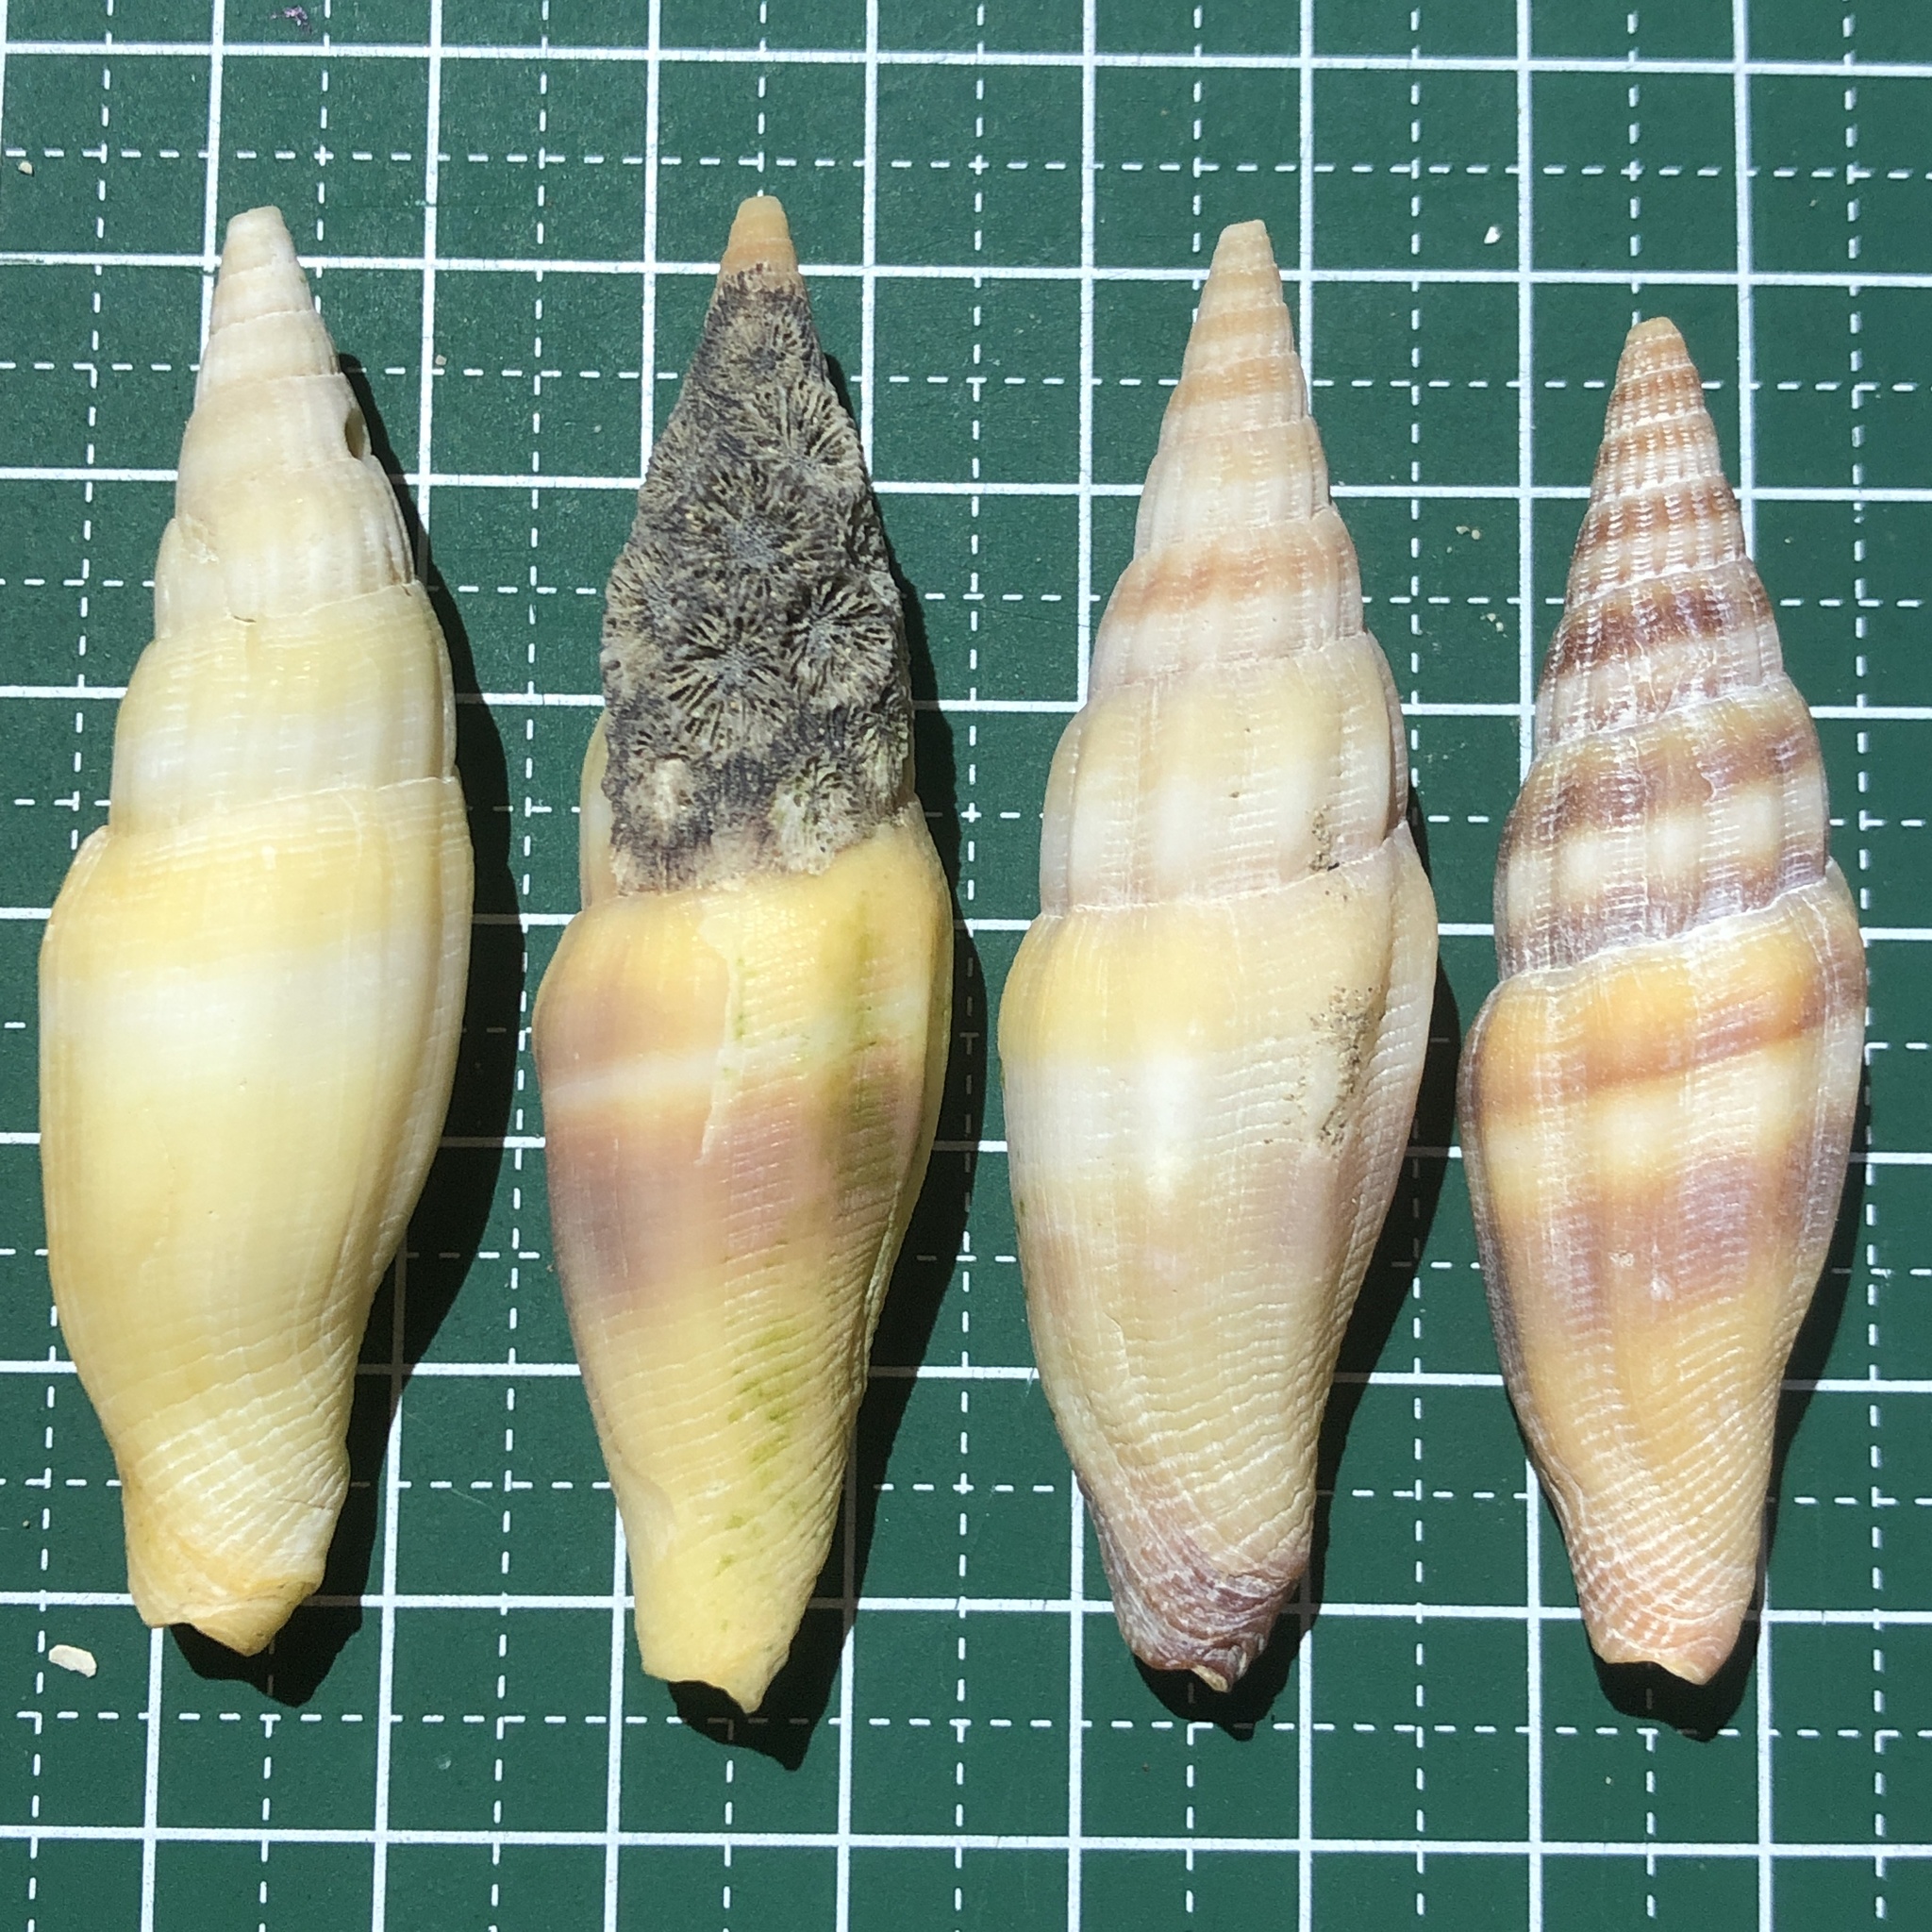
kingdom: Animalia
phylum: Mollusca
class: Gastropoda
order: Neogastropoda
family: Costellariidae
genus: Vexillum
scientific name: Vexillum coccineum
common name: Ornate miter
